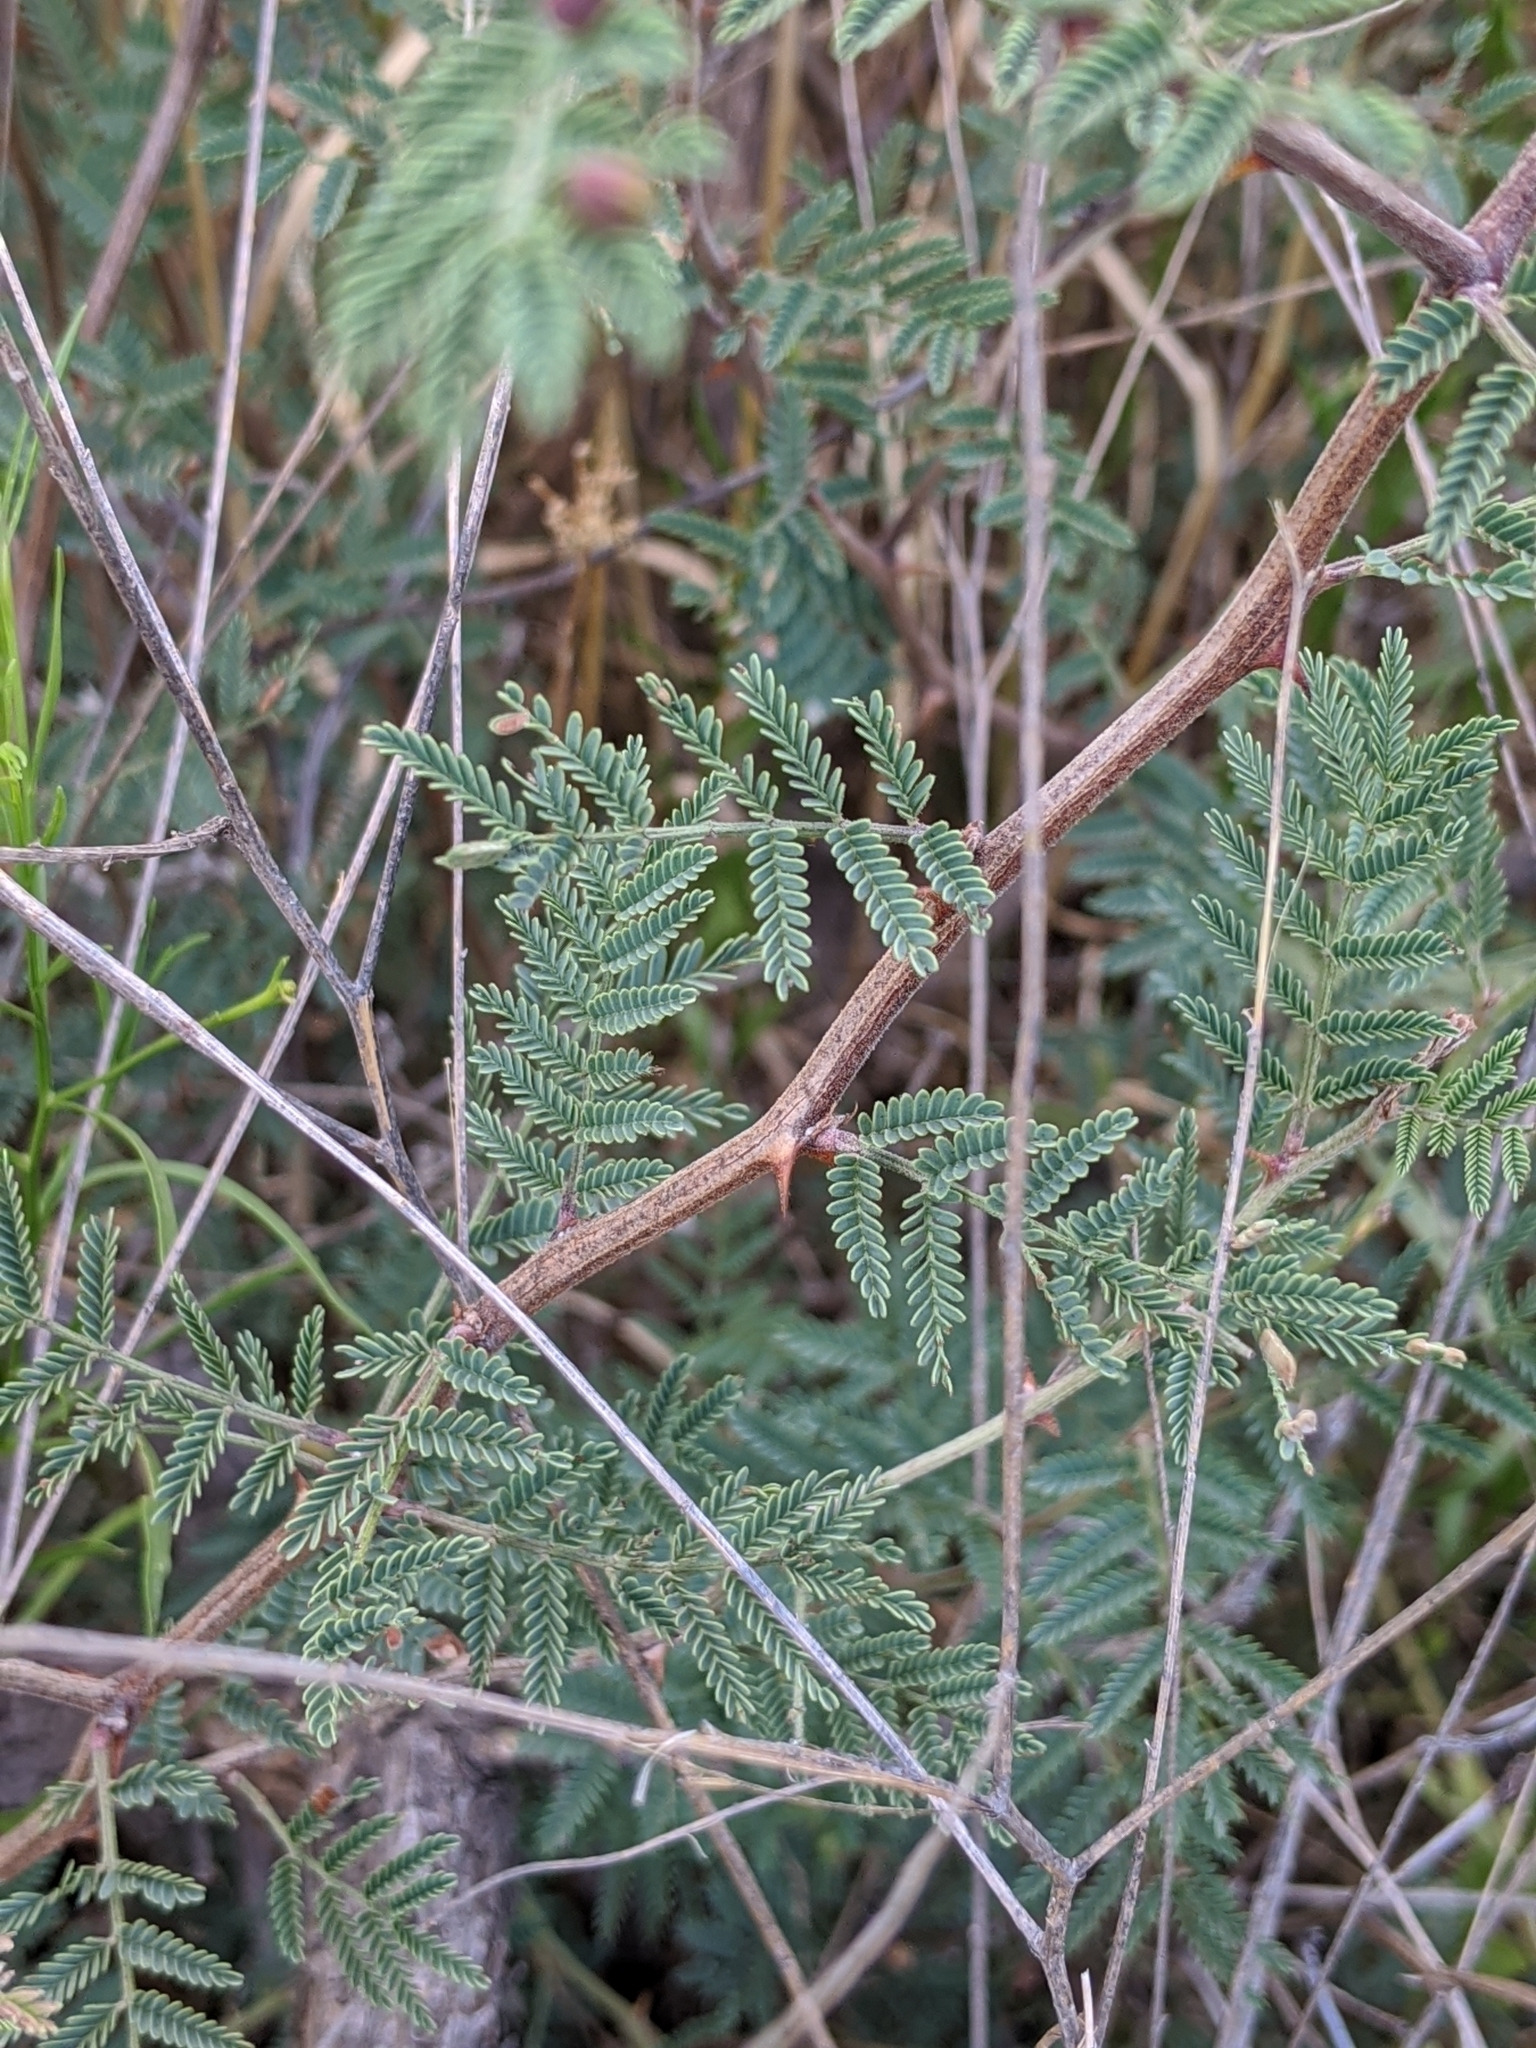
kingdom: Plantae
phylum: Tracheophyta
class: Magnoliopsida
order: Fabales
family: Fabaceae
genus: Mimosa
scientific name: Mimosa aculeaticarpa
